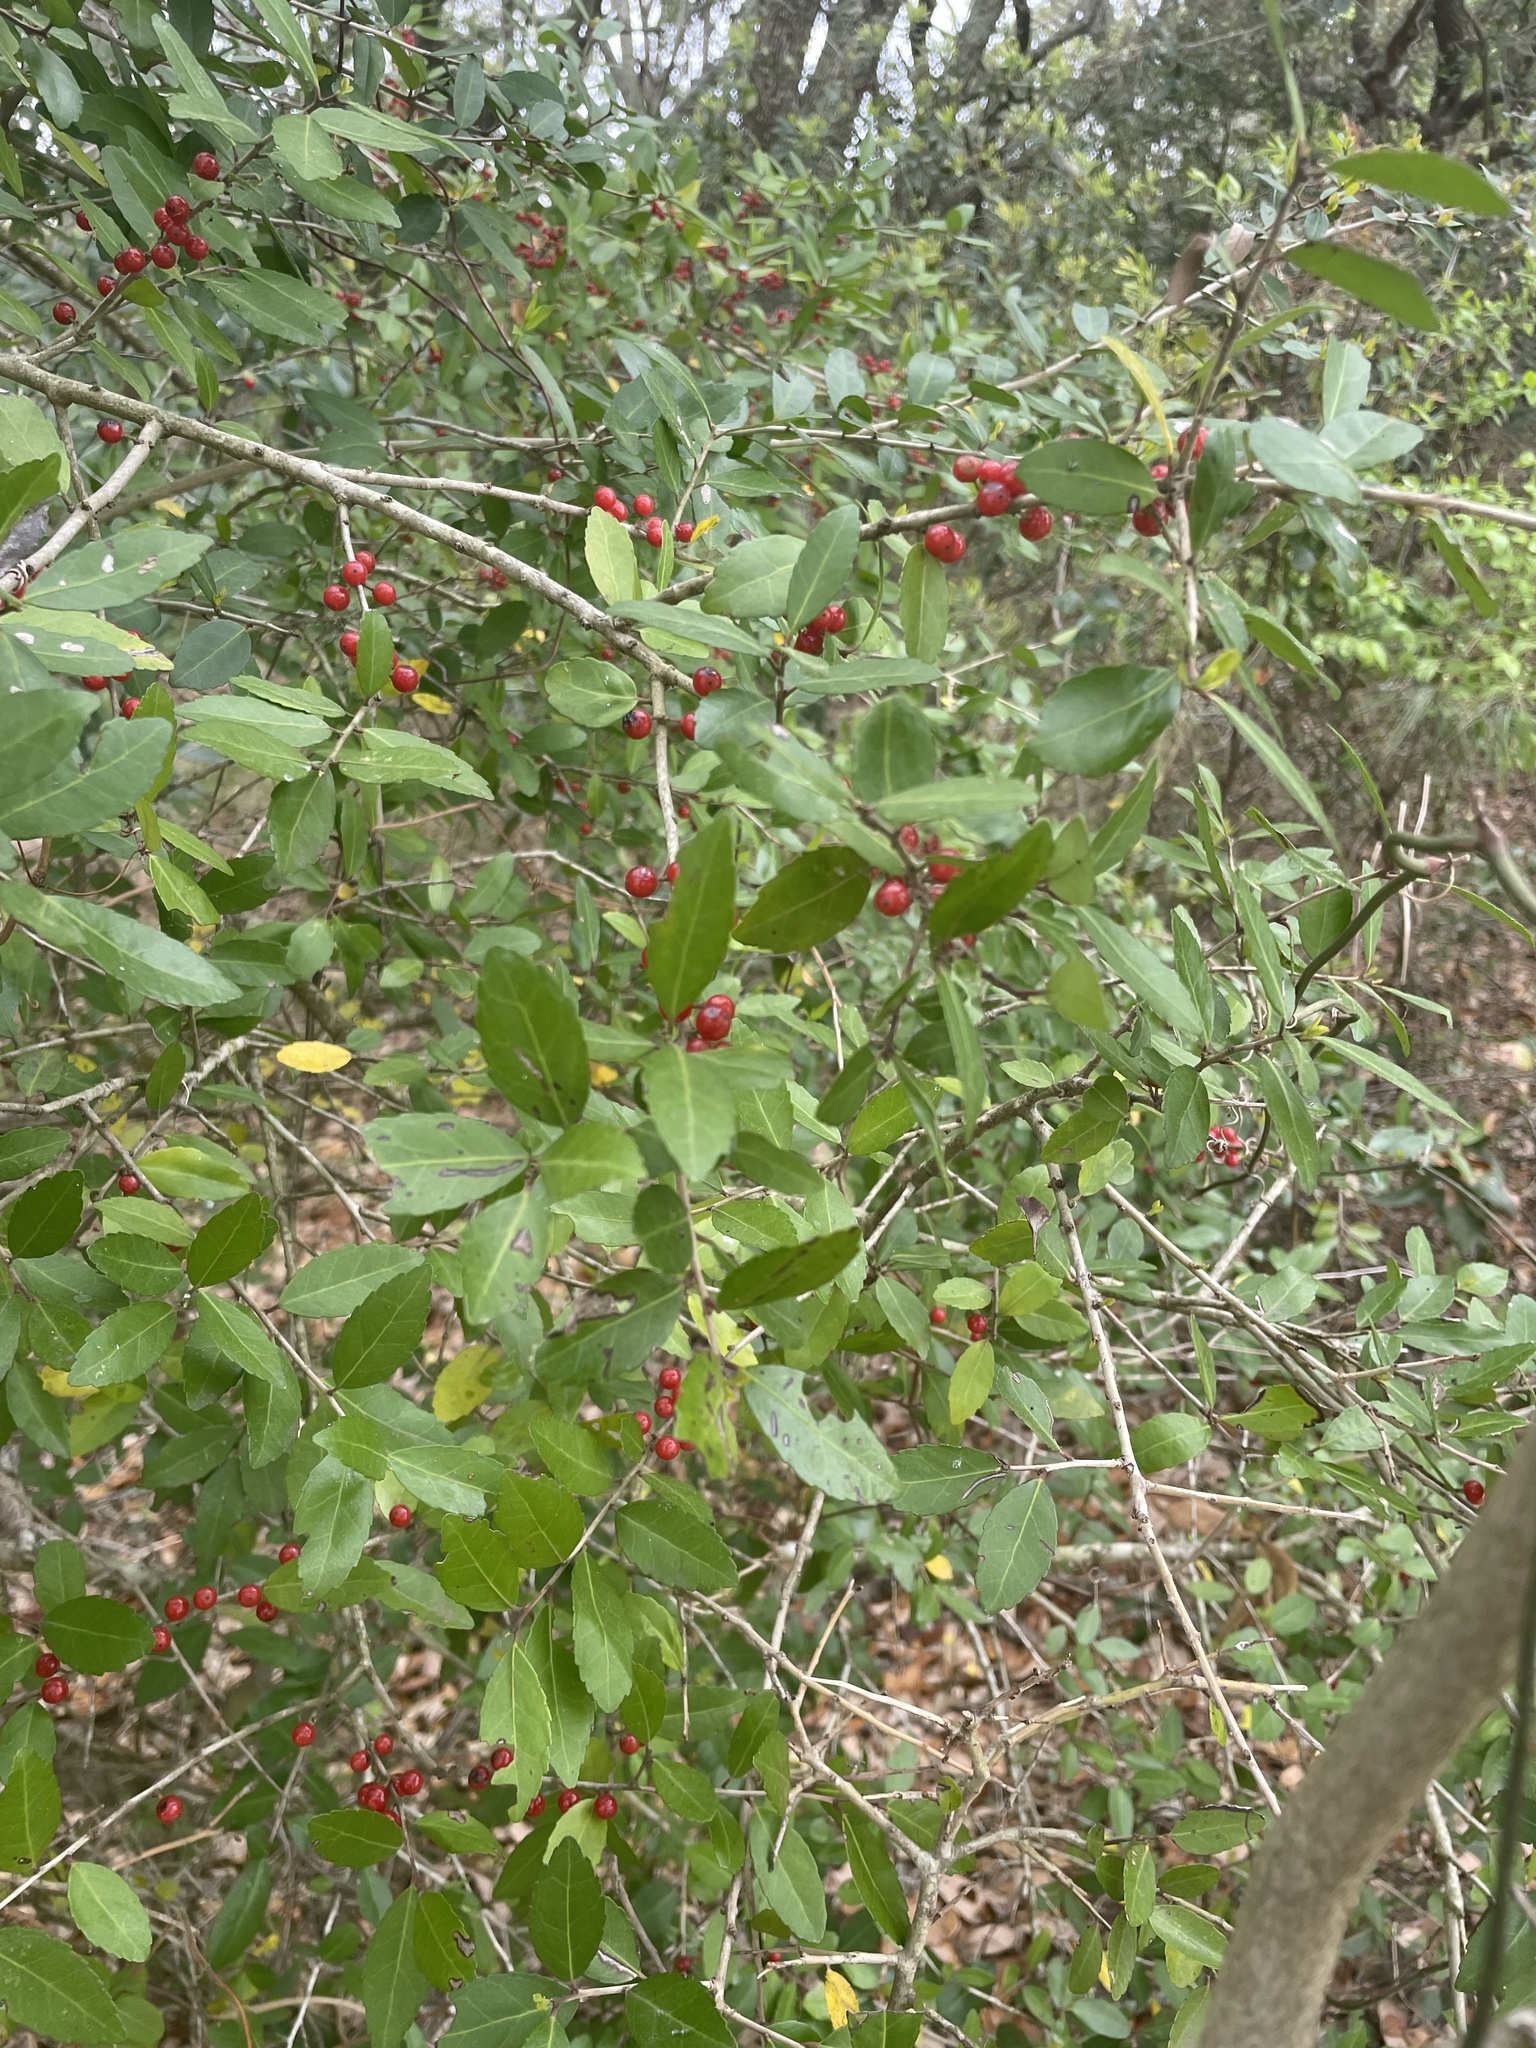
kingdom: Plantae
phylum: Tracheophyta
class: Magnoliopsida
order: Aquifoliales
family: Aquifoliaceae
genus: Ilex
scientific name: Ilex vomitoria
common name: Yaupon holly
